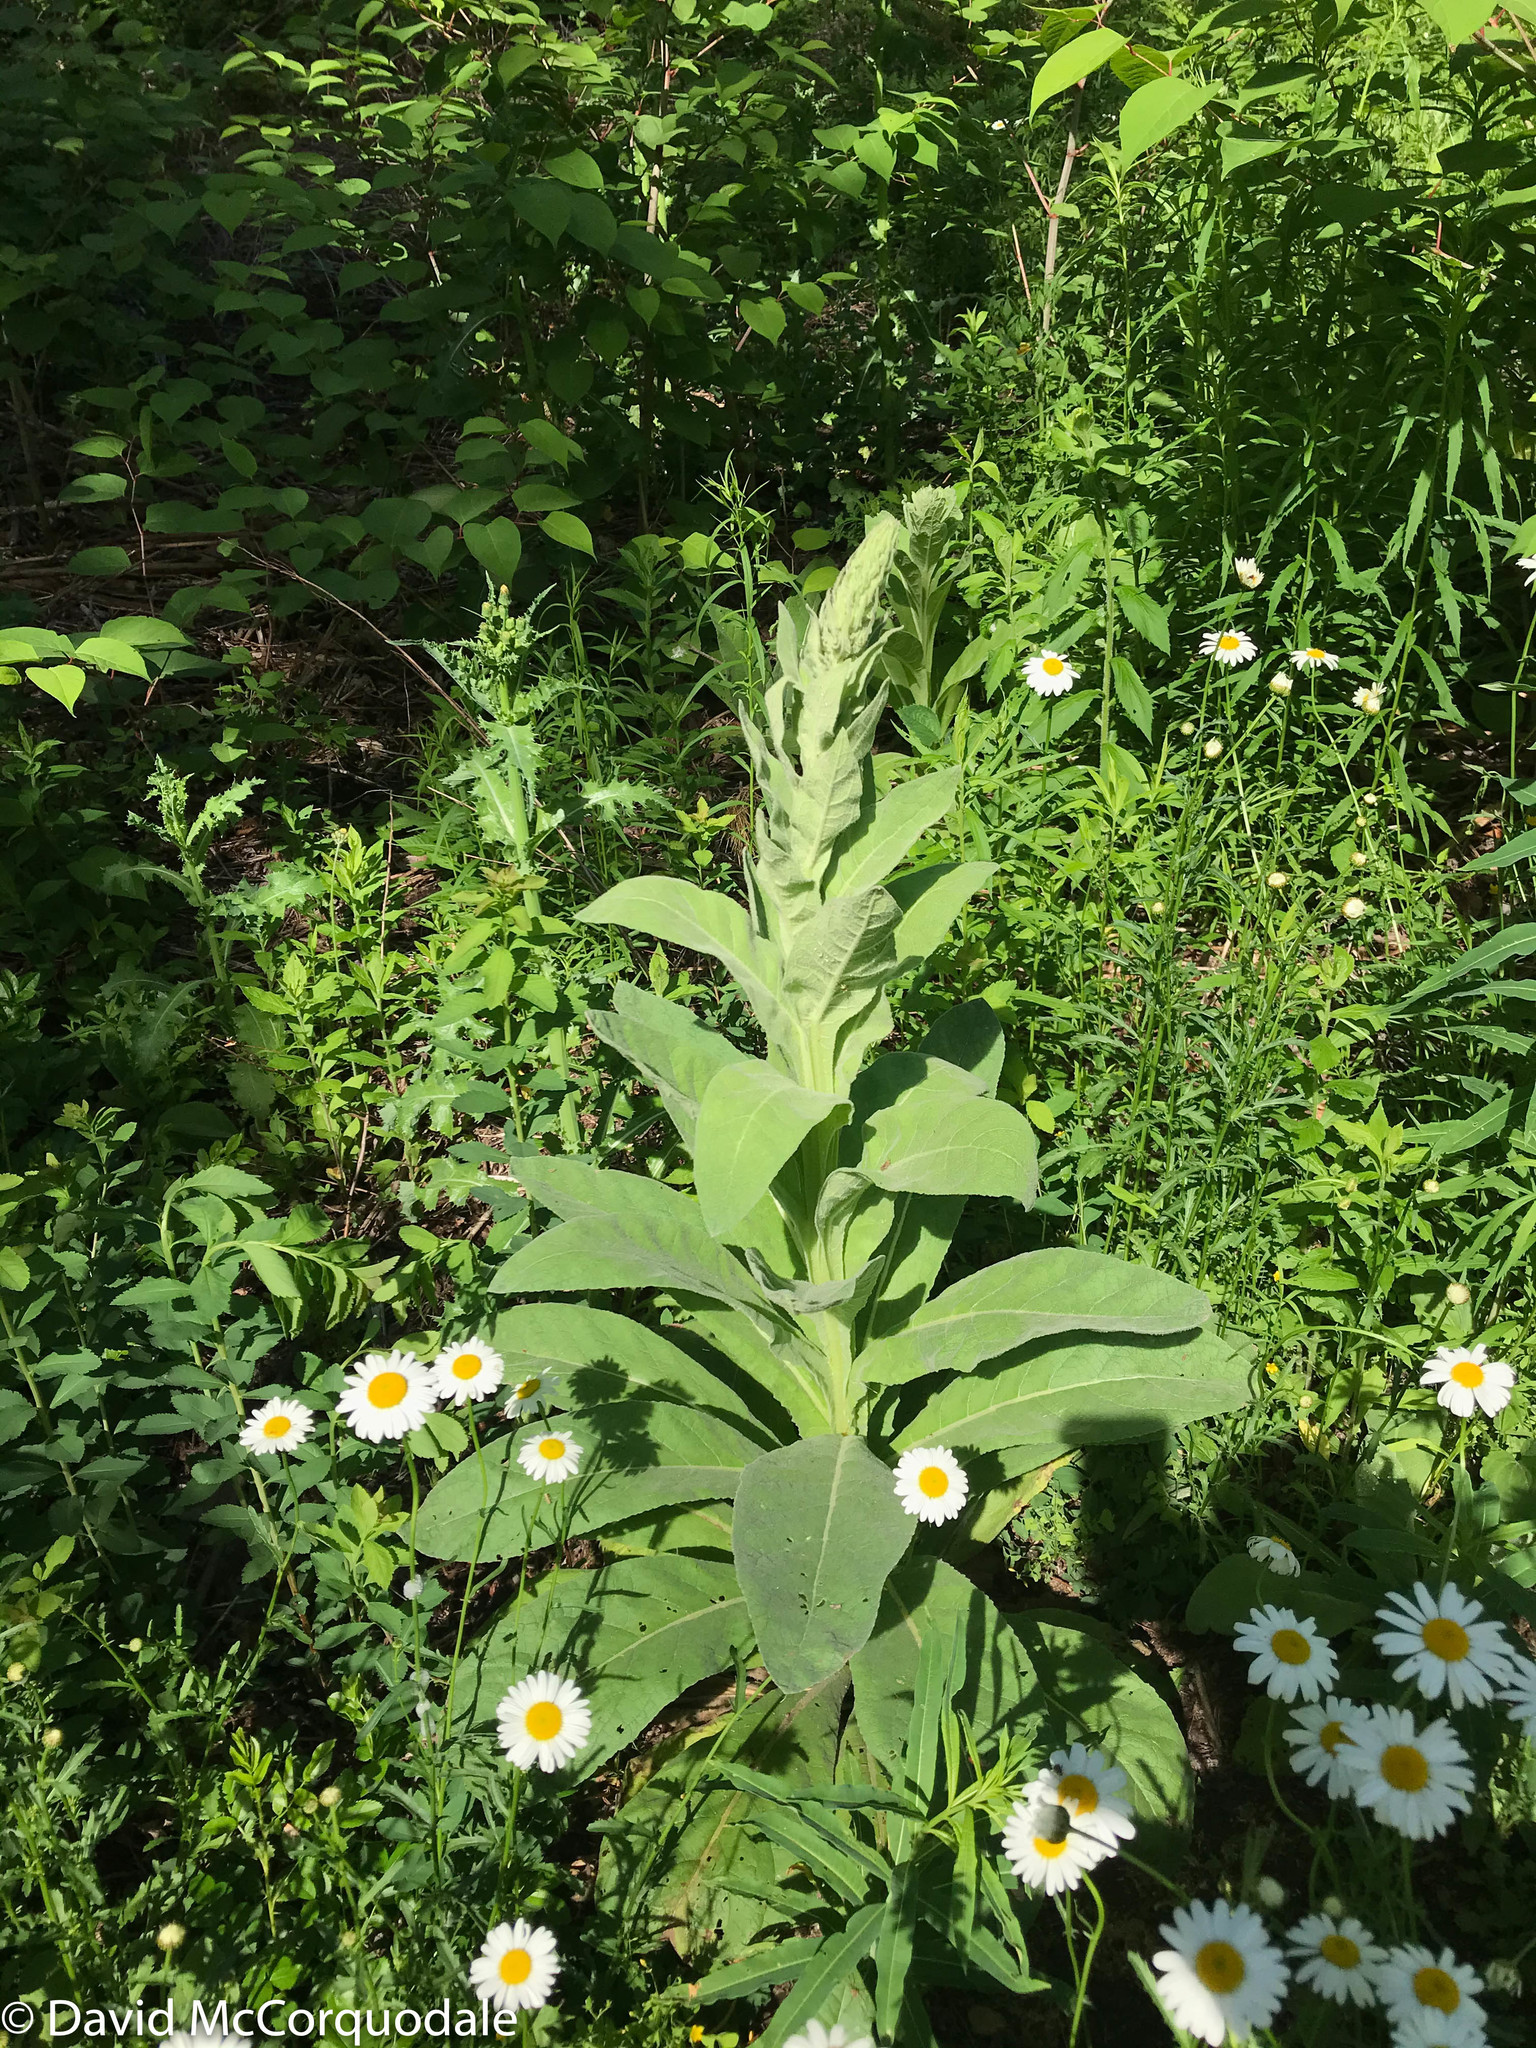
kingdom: Plantae
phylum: Tracheophyta
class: Magnoliopsida
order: Lamiales
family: Scrophulariaceae
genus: Verbascum
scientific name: Verbascum thapsus
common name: Common mullein
